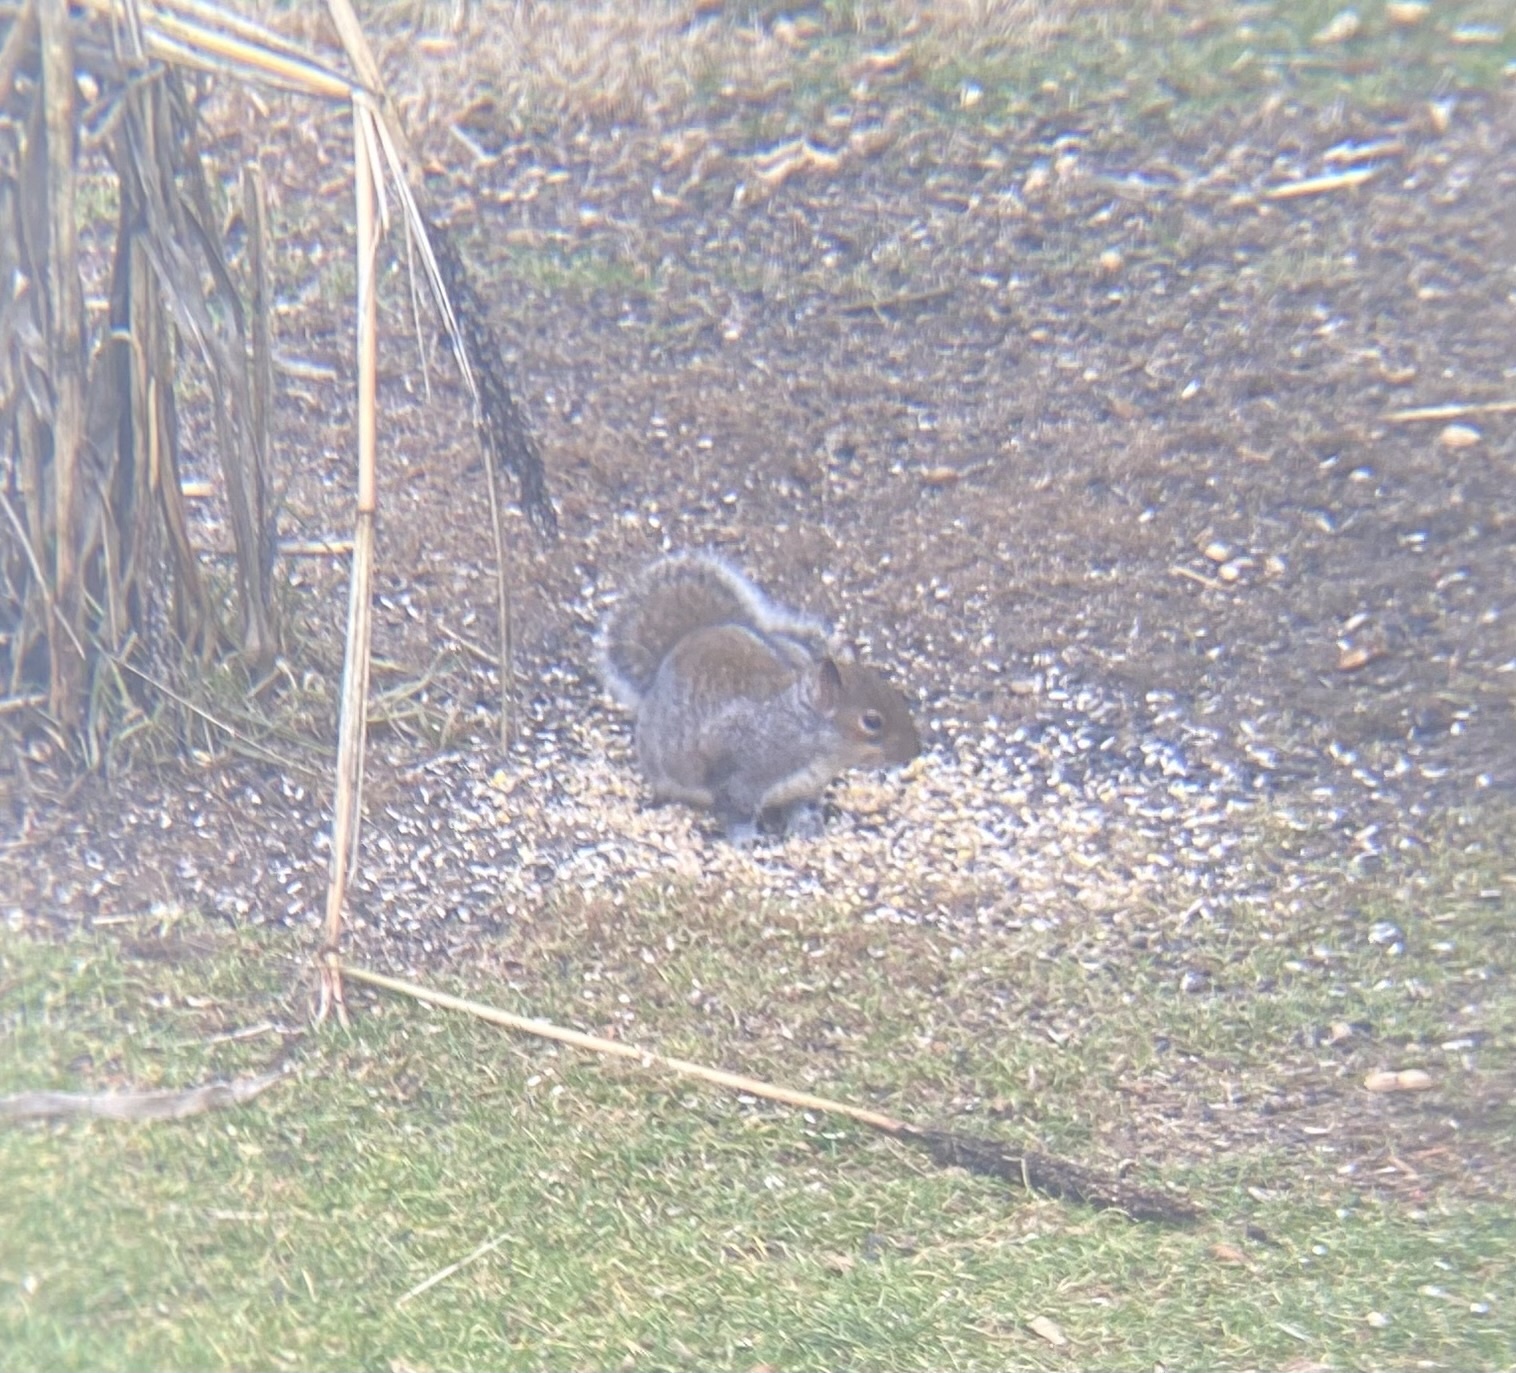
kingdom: Animalia
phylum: Chordata
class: Mammalia
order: Rodentia
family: Sciuridae
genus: Sciurus
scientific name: Sciurus carolinensis
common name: Eastern gray squirrel
